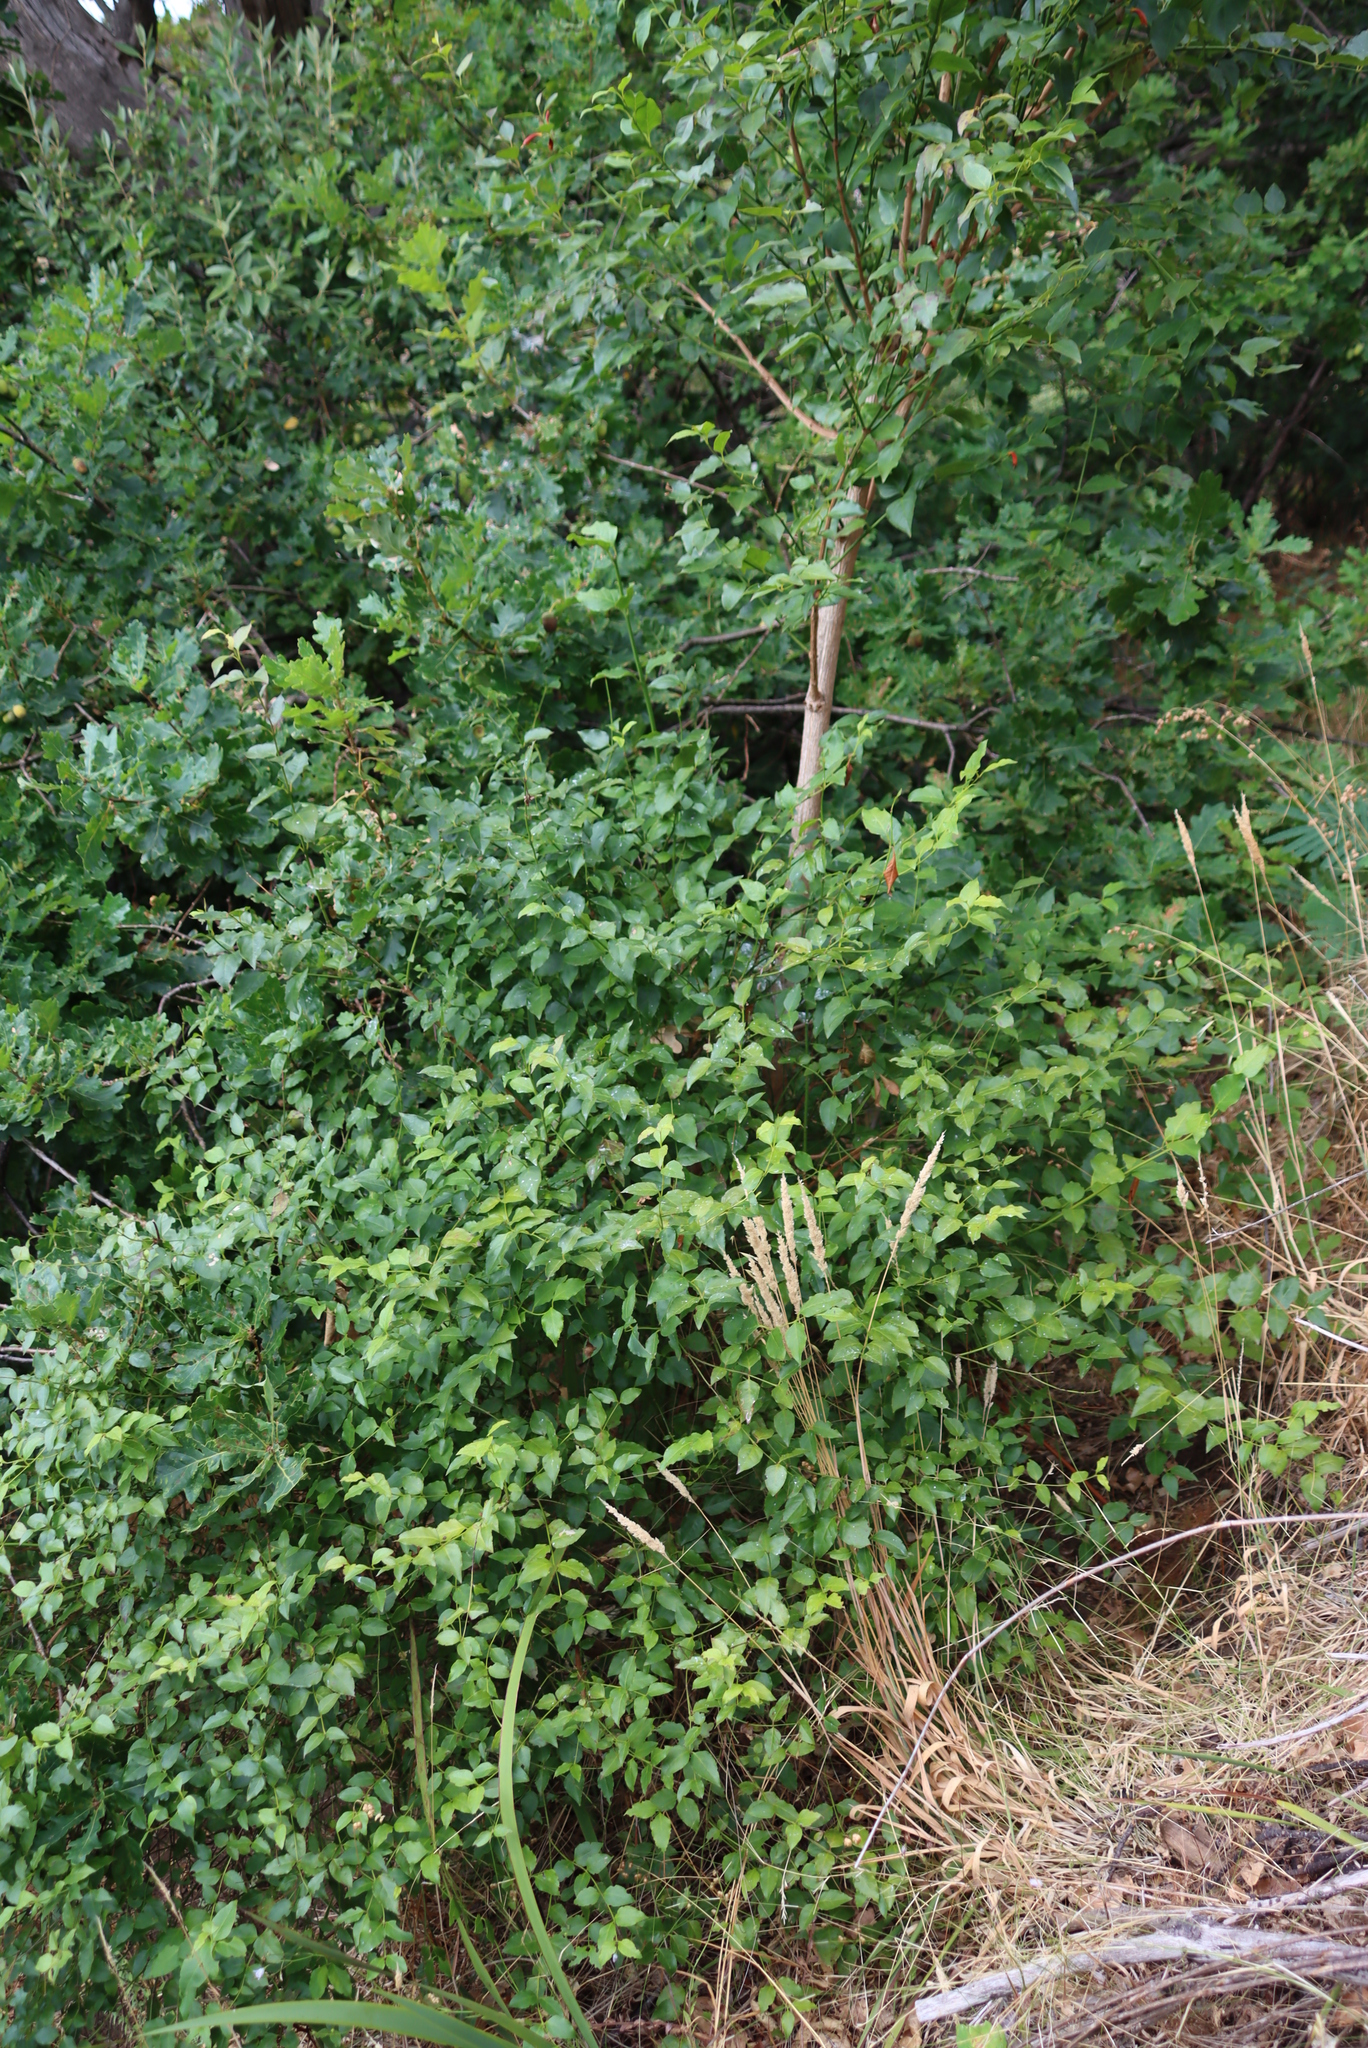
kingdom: Plantae
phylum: Tracheophyta
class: Magnoliopsida
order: Lamiales
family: Stilbaceae
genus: Halleria
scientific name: Halleria lucida
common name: Tree fuschia
